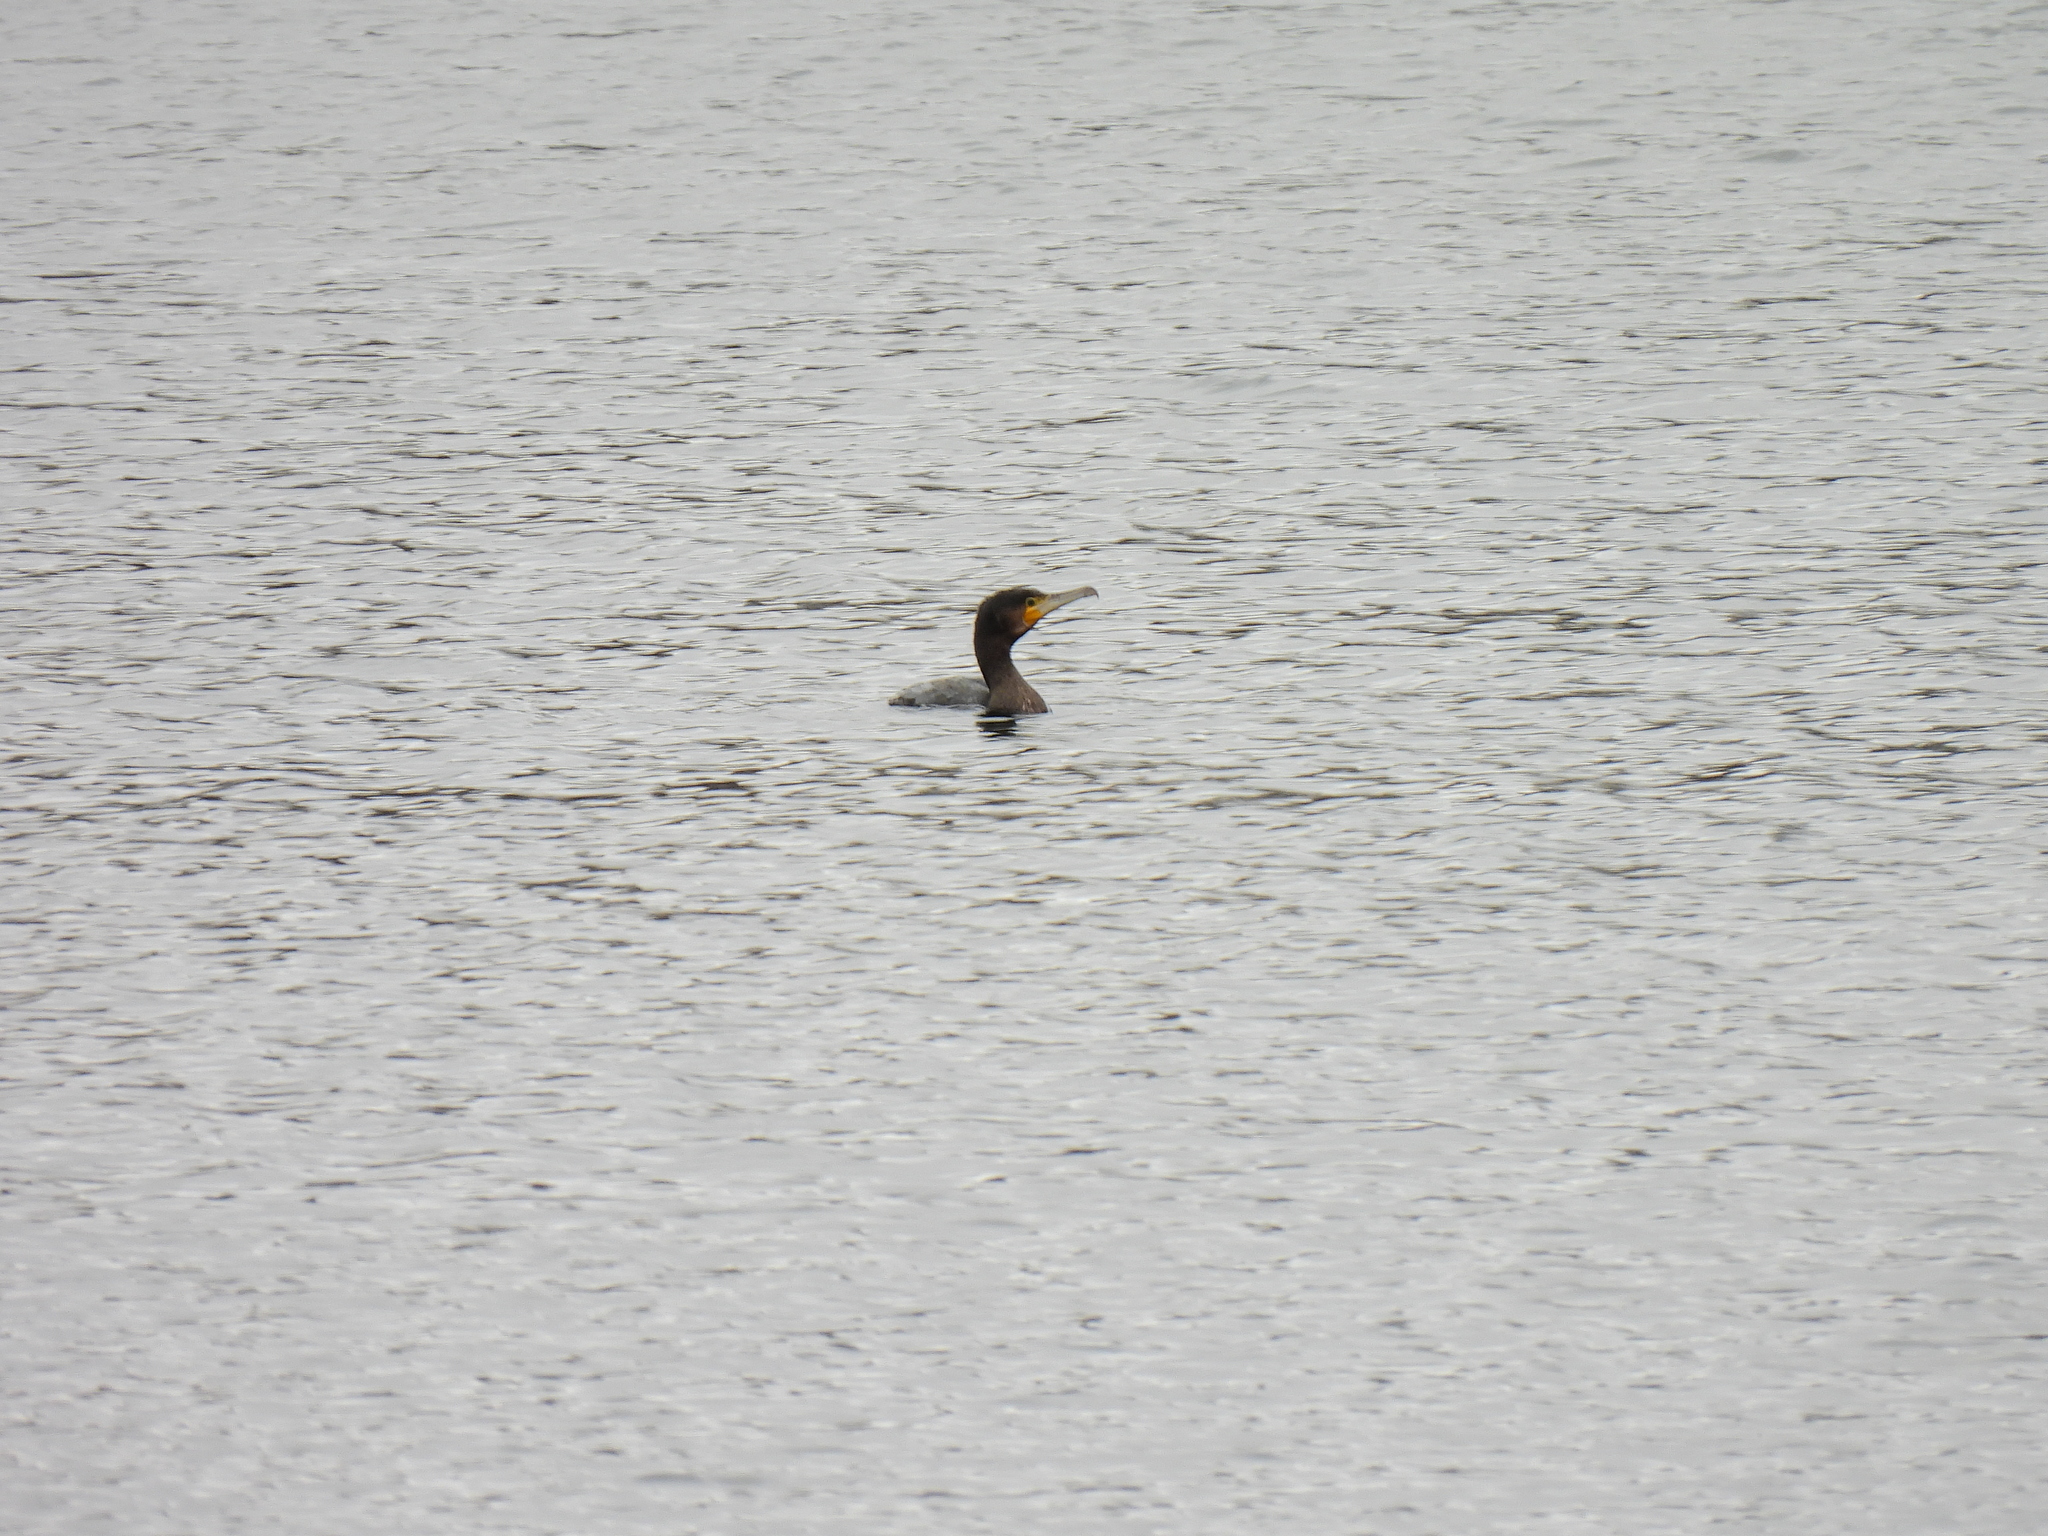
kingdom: Animalia
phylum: Chordata
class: Aves
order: Suliformes
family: Phalacrocoracidae
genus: Phalacrocorax
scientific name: Phalacrocorax carbo
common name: Great cormorant
